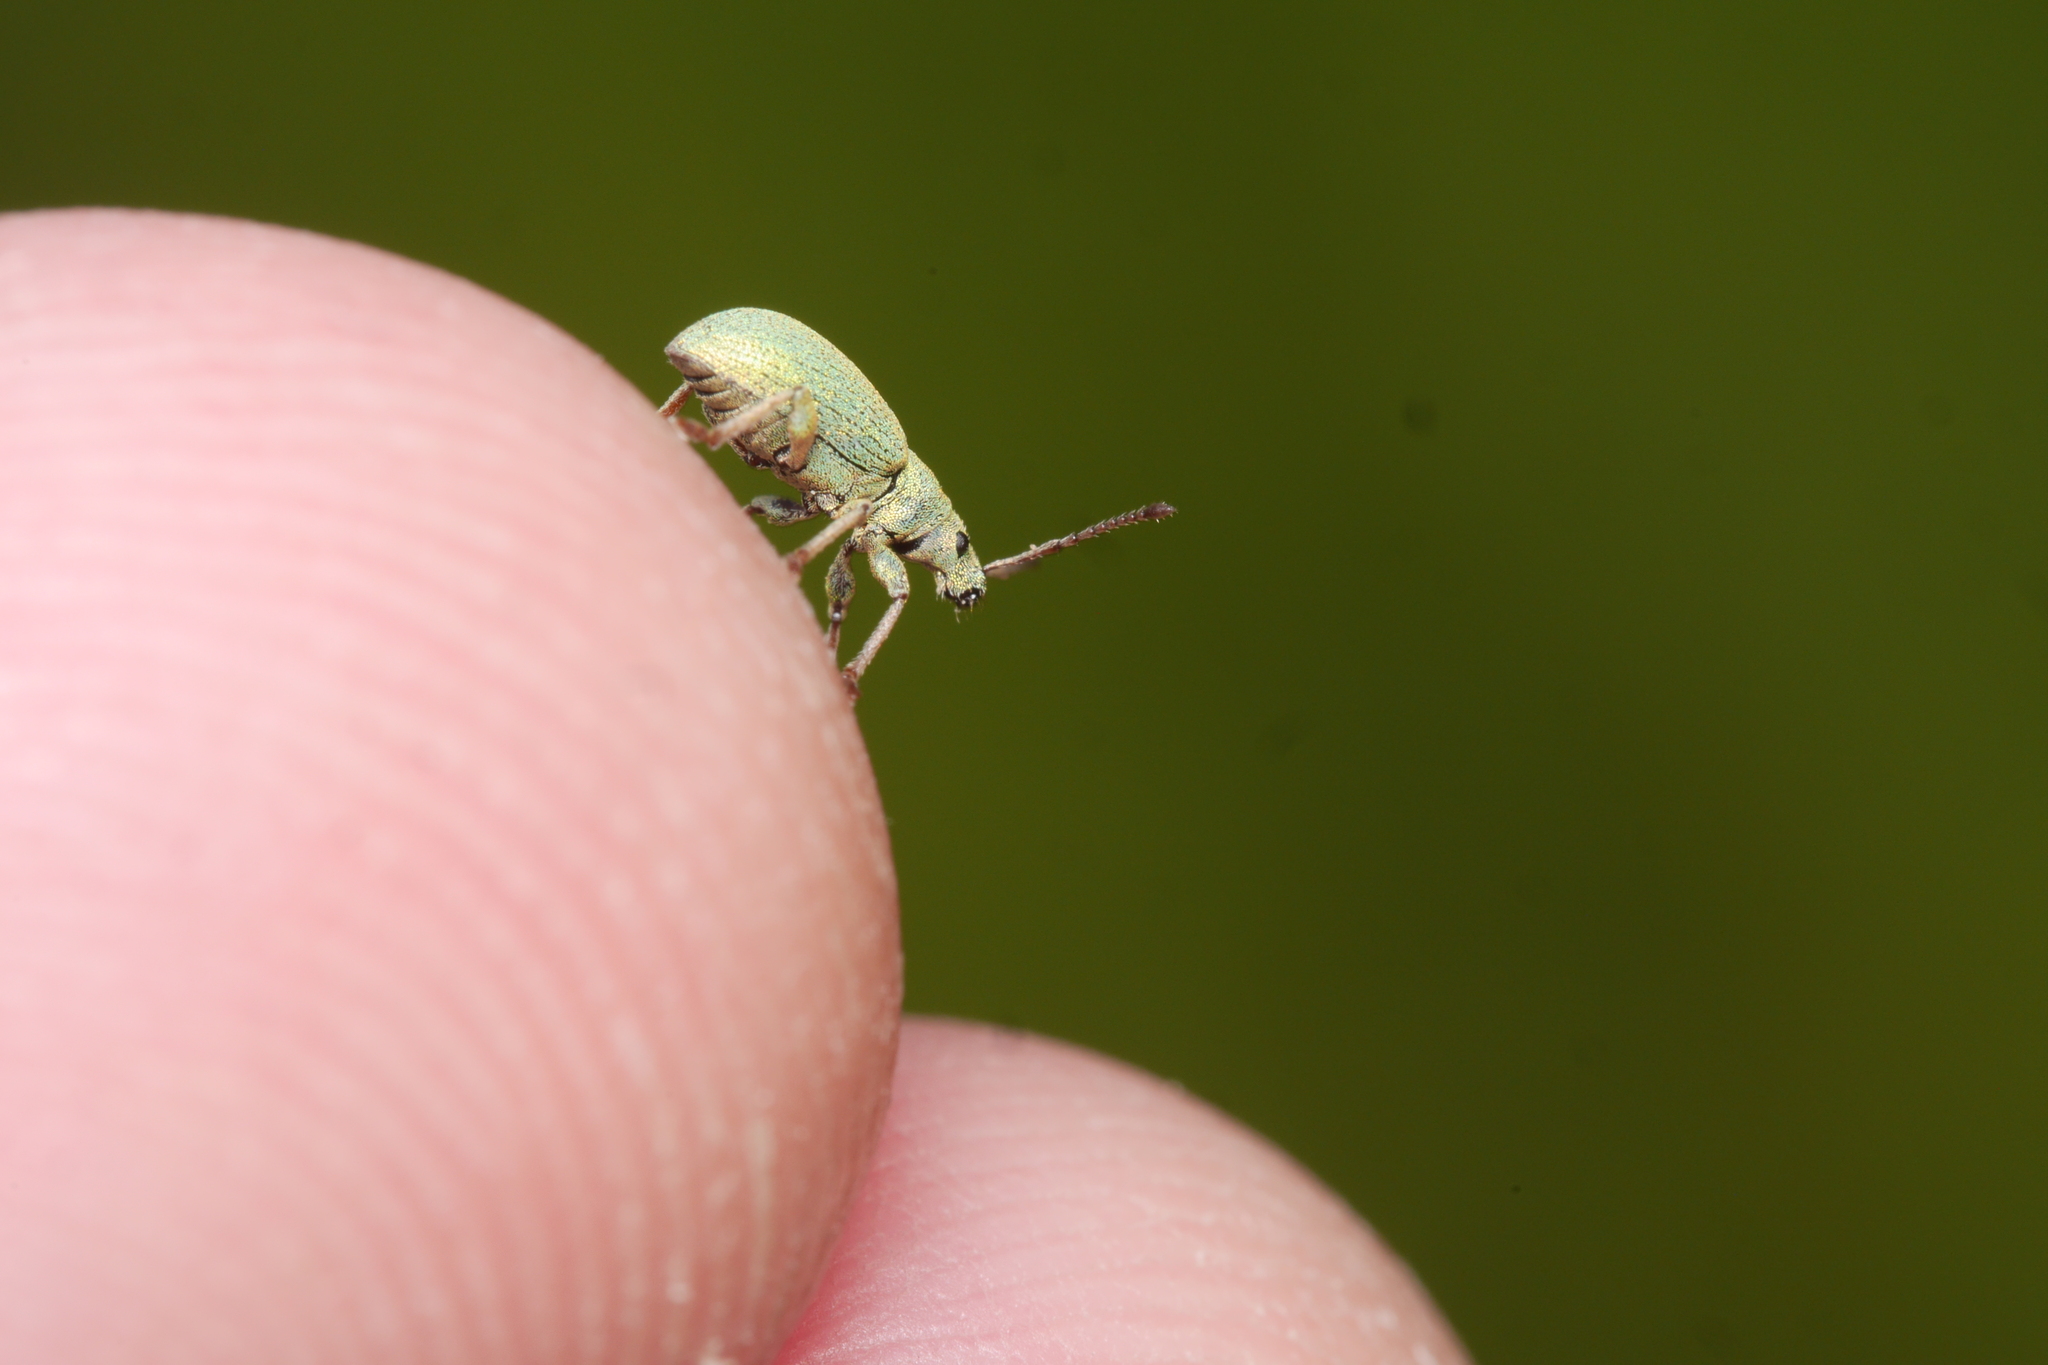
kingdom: Animalia
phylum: Arthropoda
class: Insecta
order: Coleoptera
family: Curculionidae
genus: Phyllobius
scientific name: Phyllobius virideaeris
